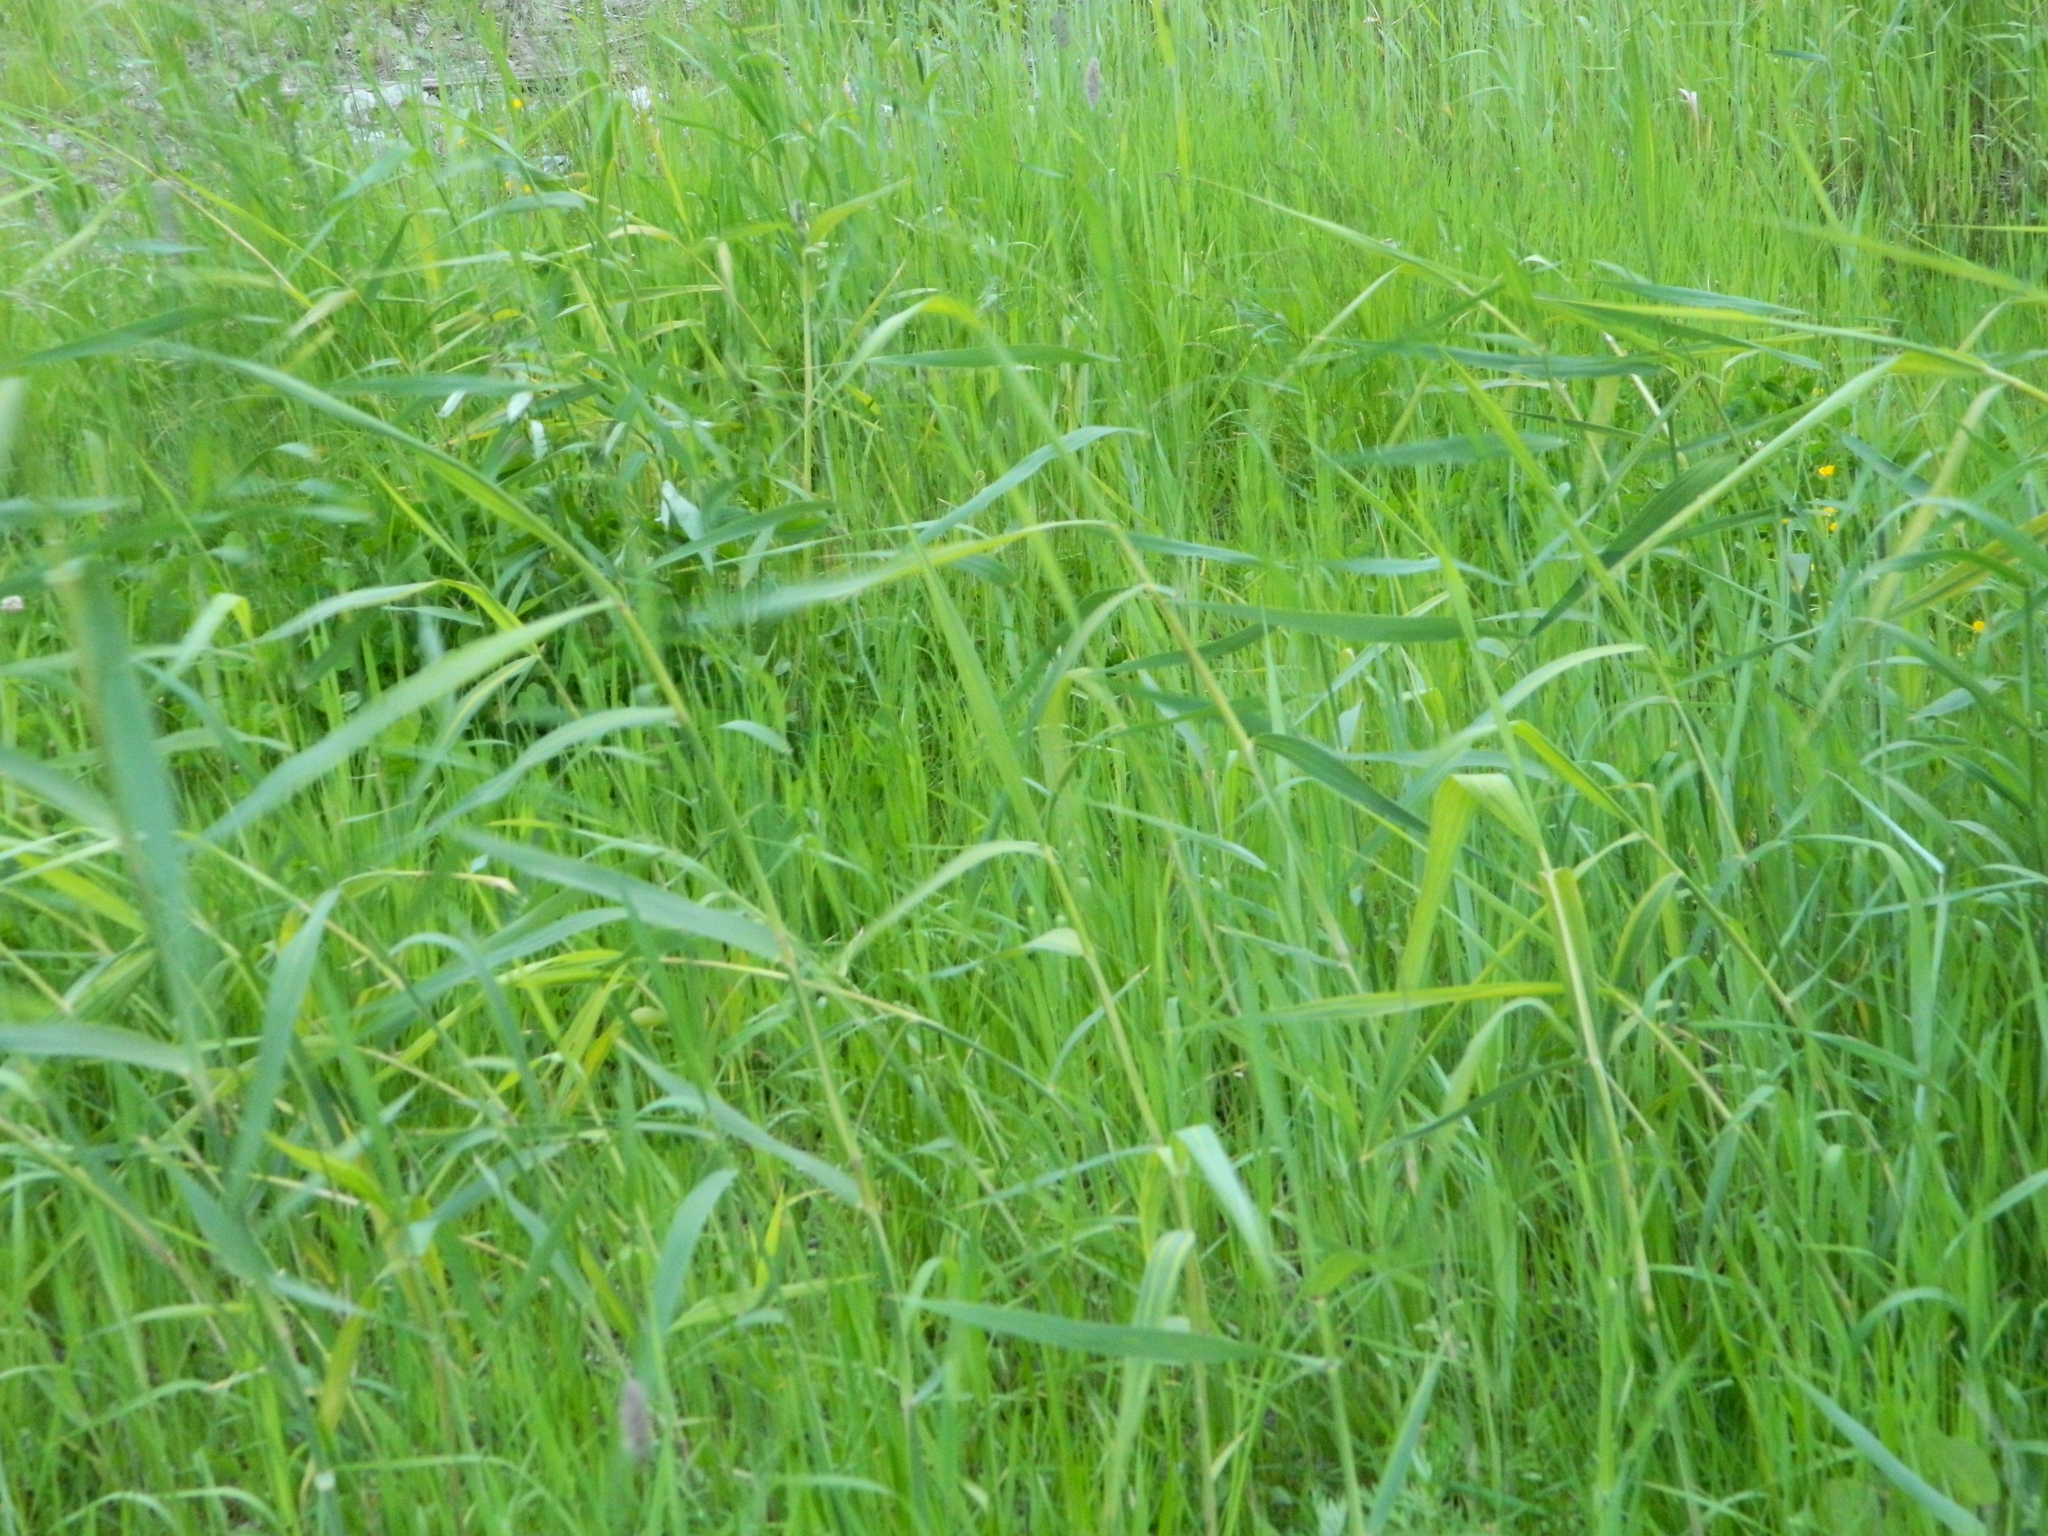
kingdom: Plantae
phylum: Tracheophyta
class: Liliopsida
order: Poales
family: Poaceae
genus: Phragmites
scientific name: Phragmites australis
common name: Common reed
